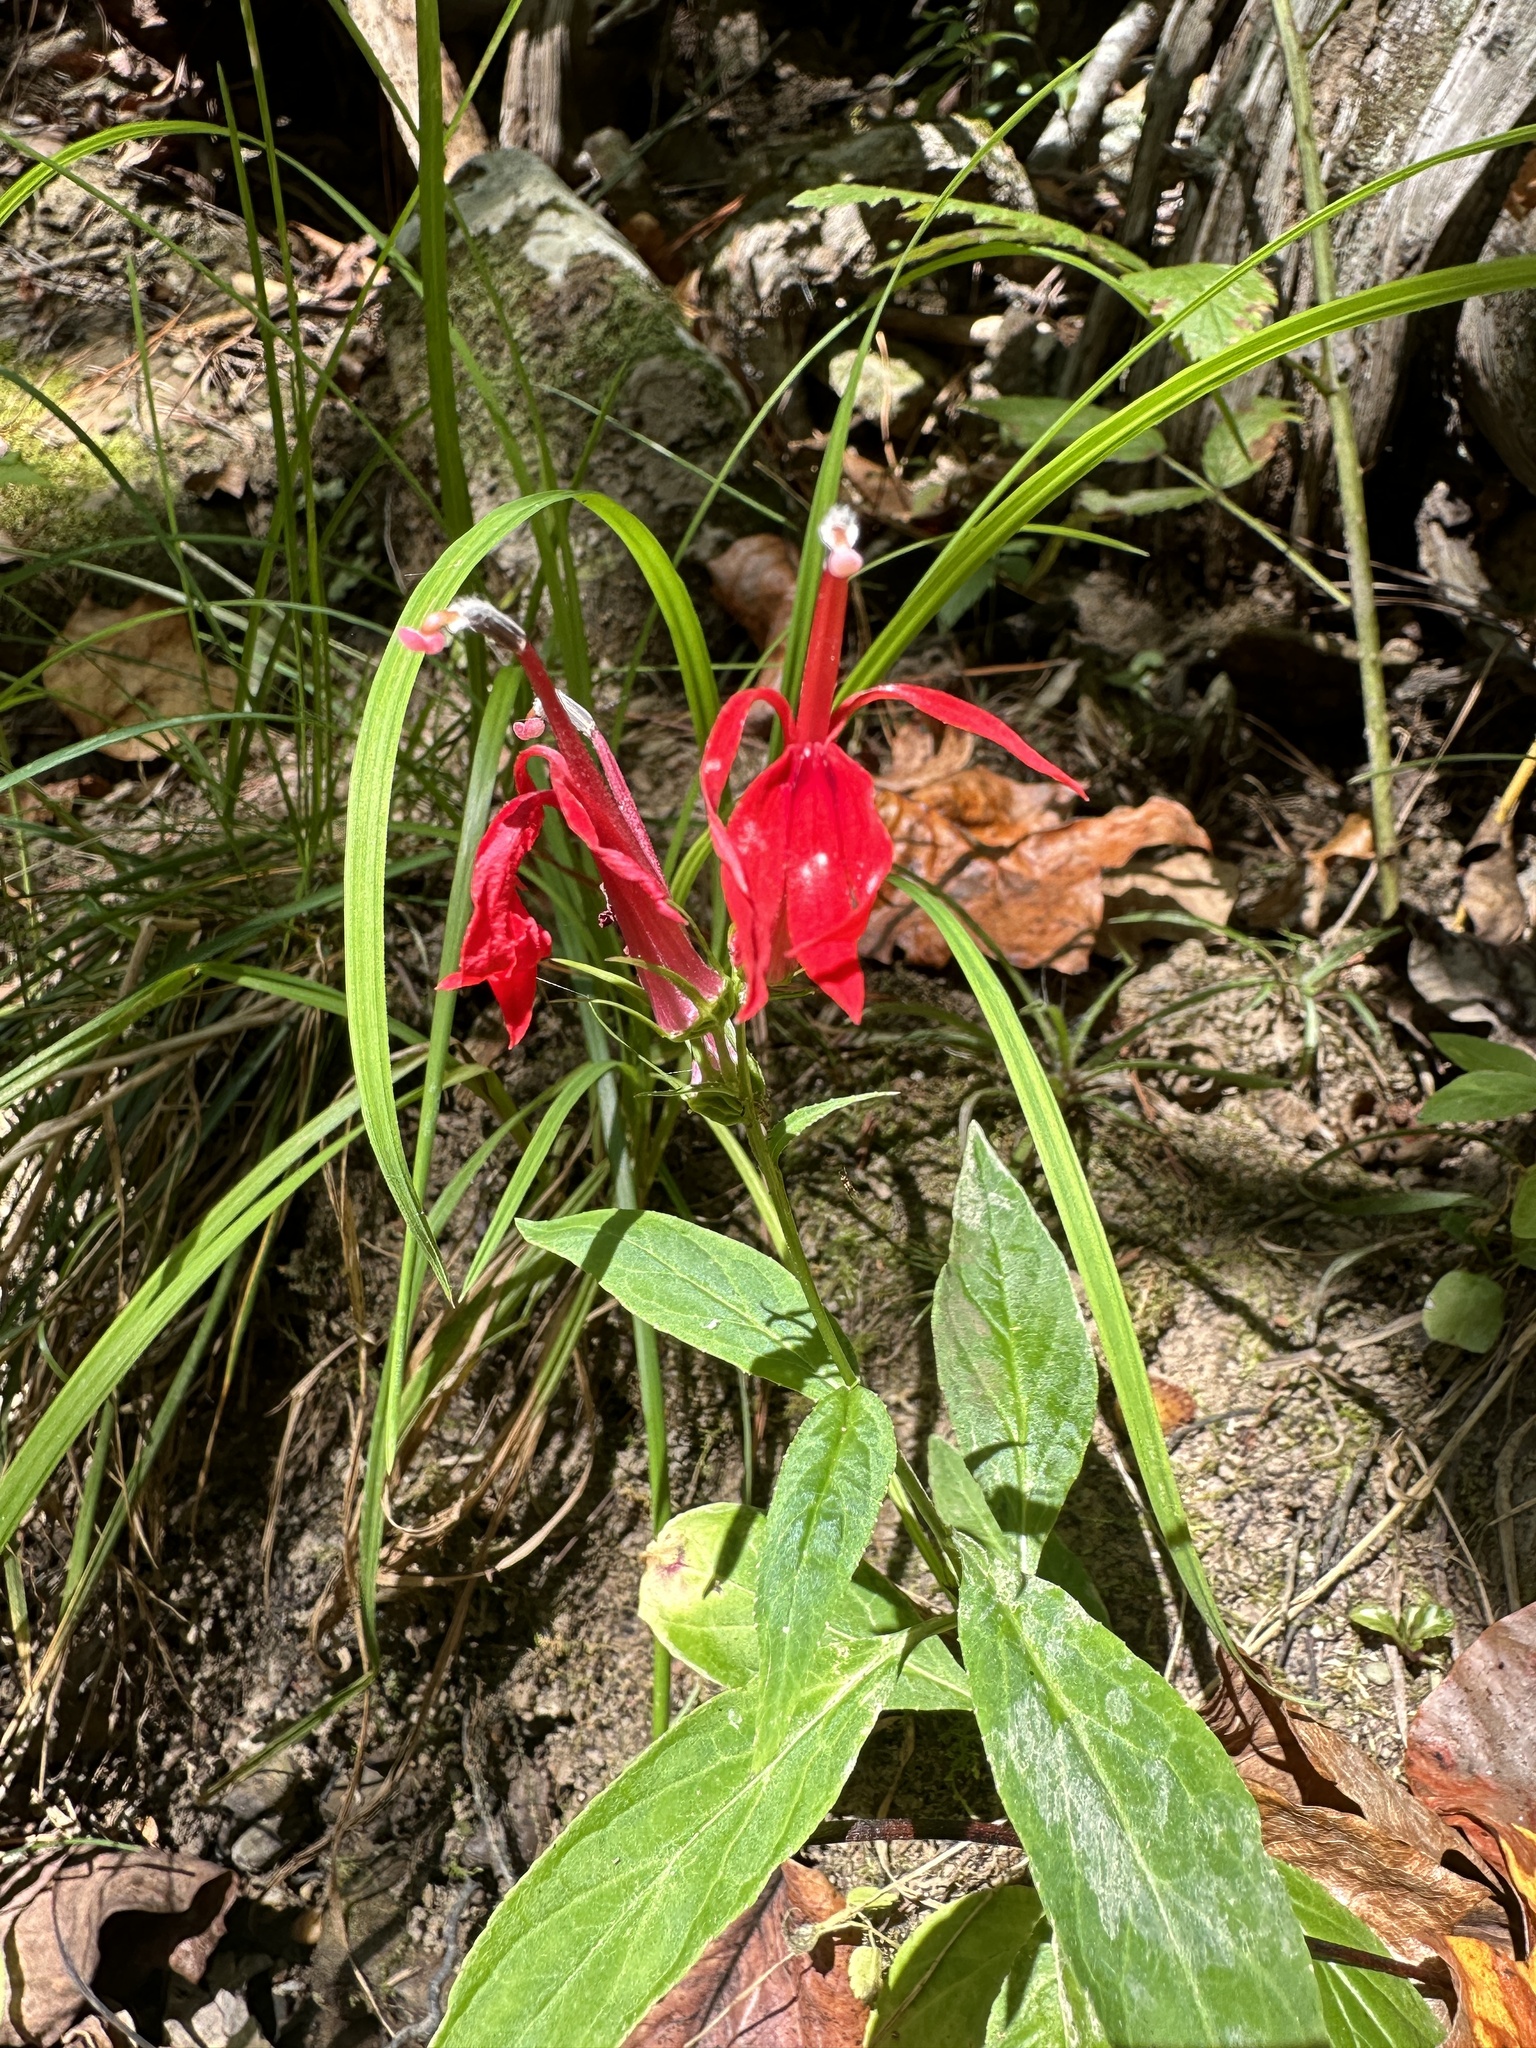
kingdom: Plantae
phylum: Tracheophyta
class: Magnoliopsida
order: Asterales
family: Campanulaceae
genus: Lobelia
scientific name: Lobelia cardinalis
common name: Cardinal flower
